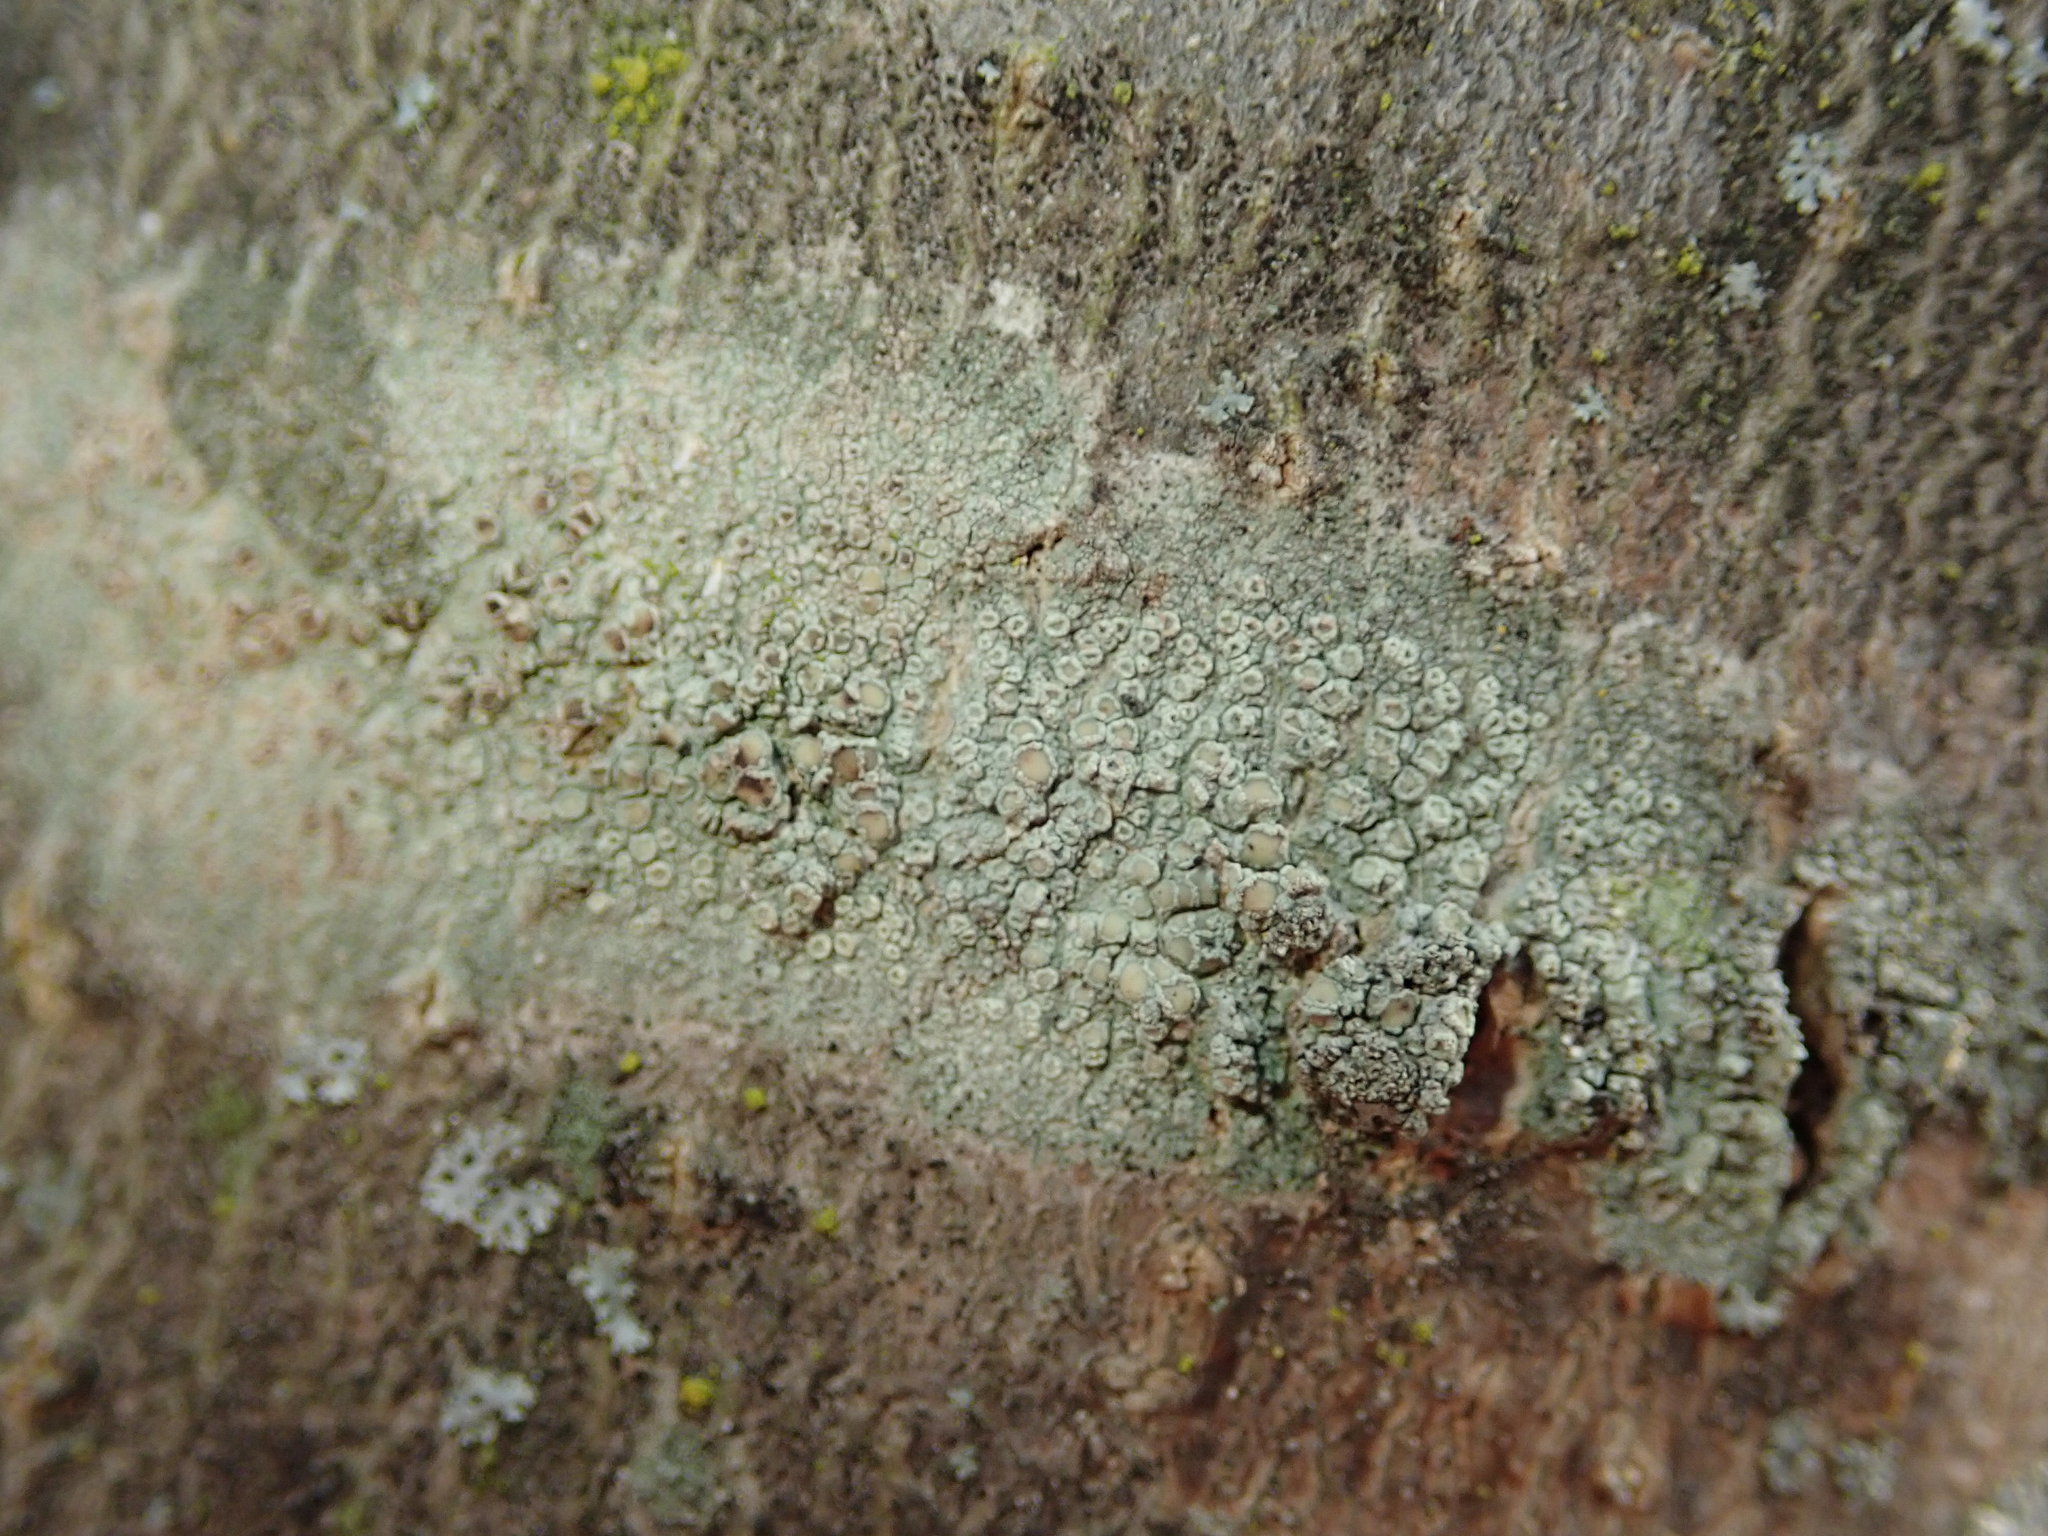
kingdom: Fungi
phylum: Ascomycota
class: Lecanoromycetes
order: Lecanorales
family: Lecanoraceae
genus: Lecanora
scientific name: Lecanora strobilina
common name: Mealy rim-lichen
